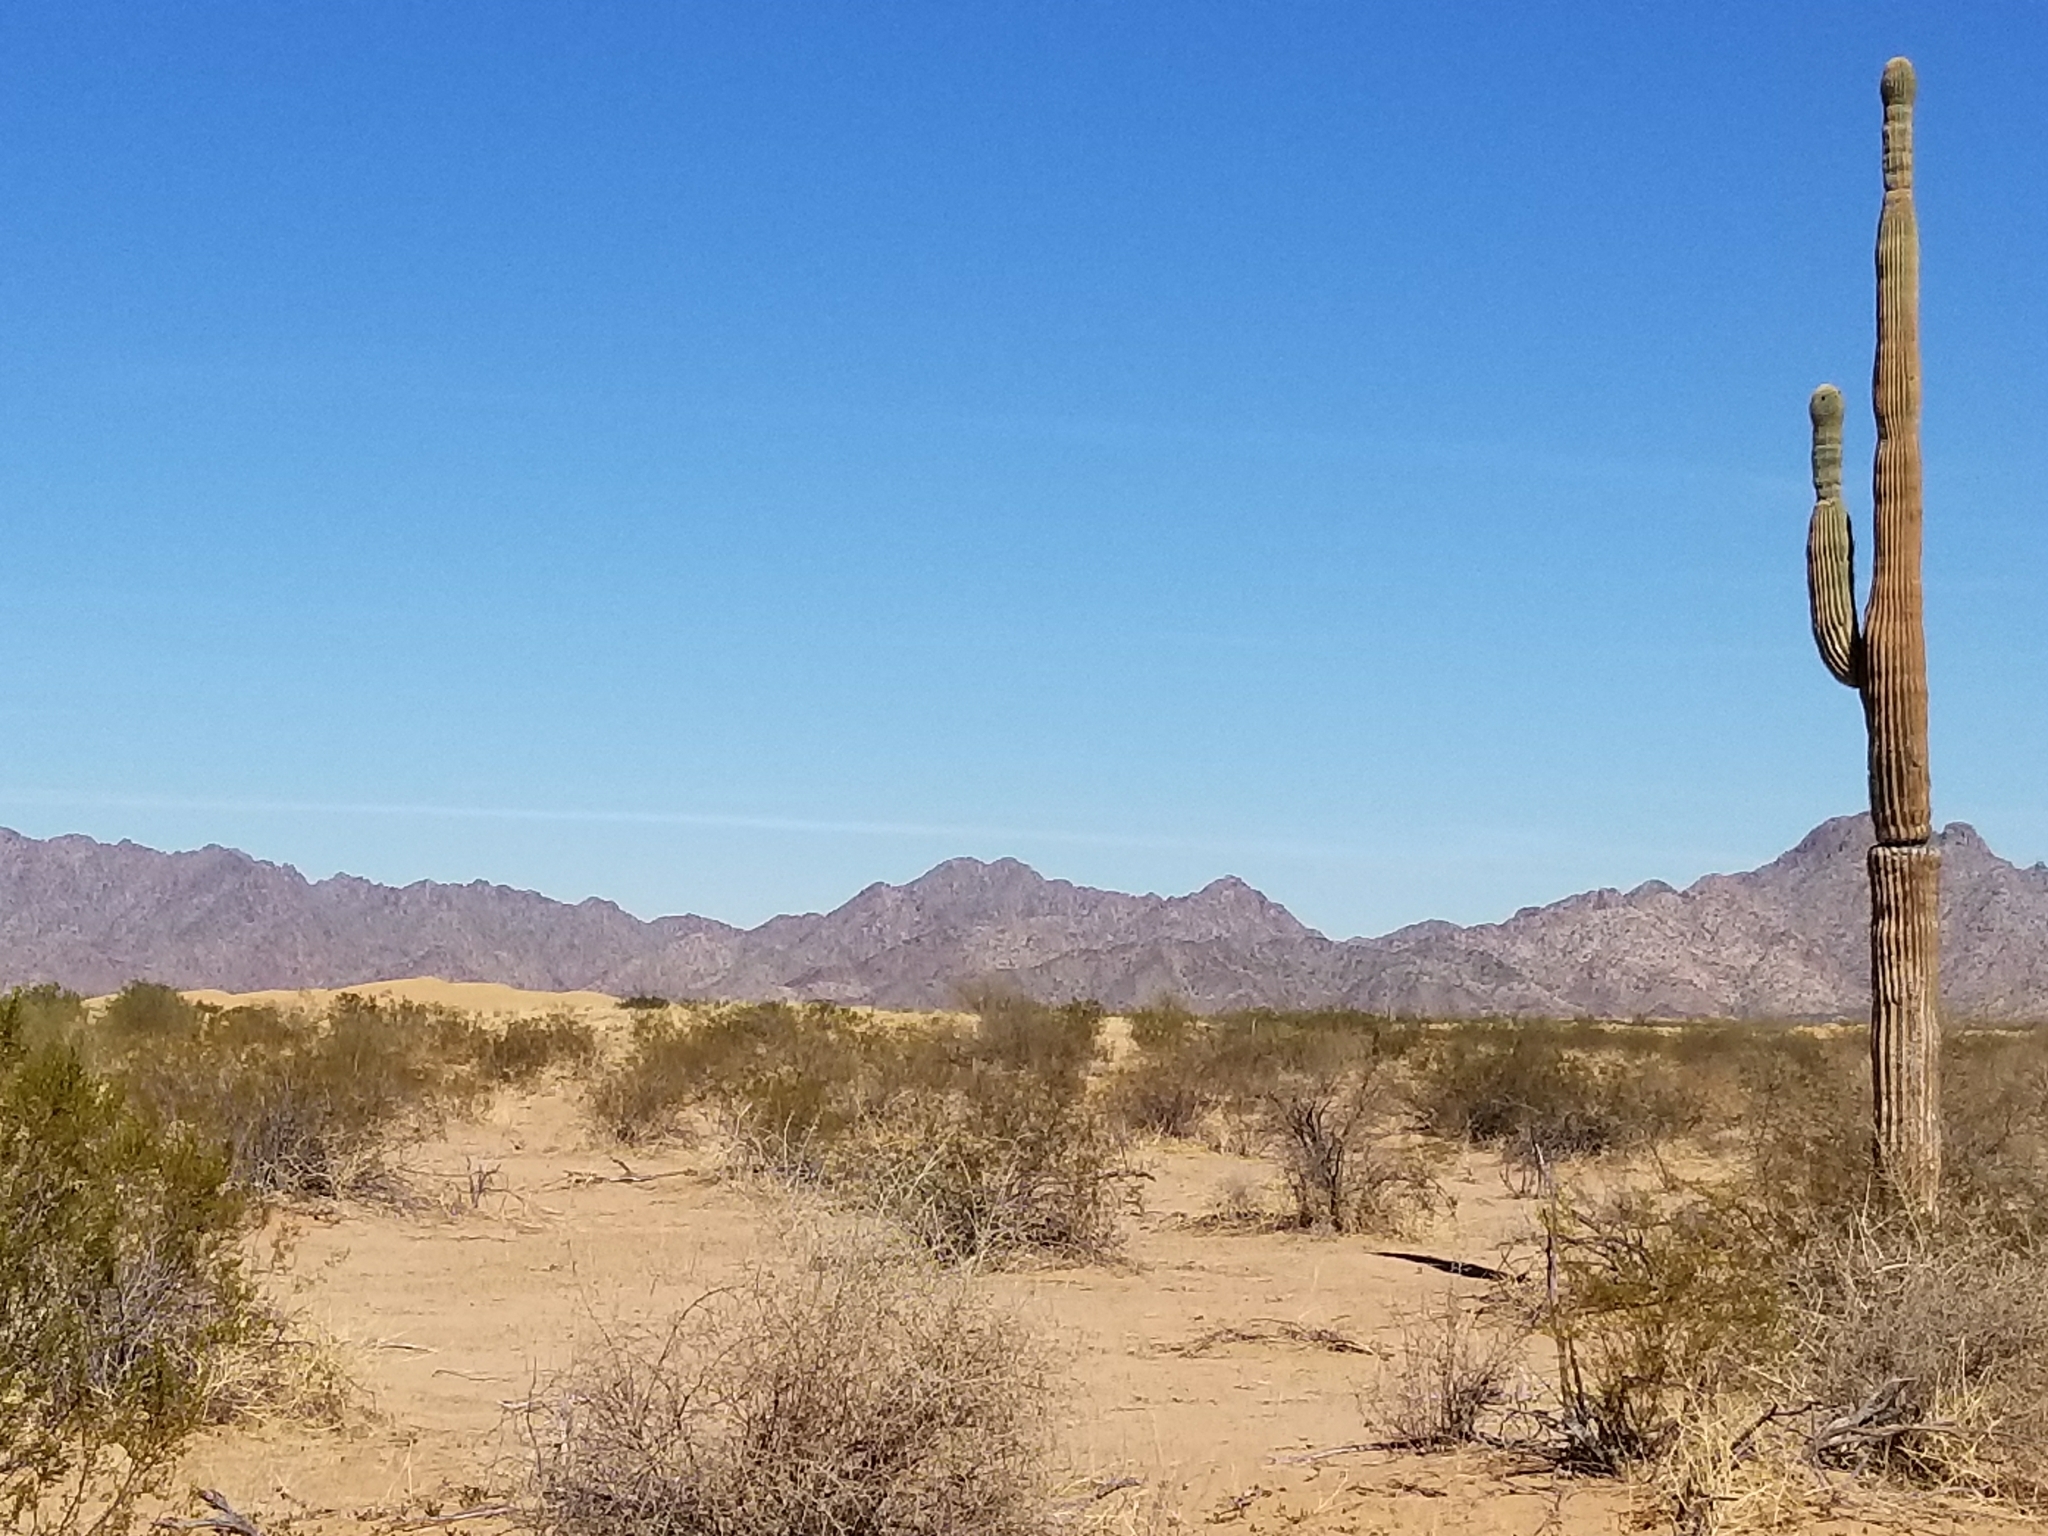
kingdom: Plantae
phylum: Tracheophyta
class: Magnoliopsida
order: Caryophyllales
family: Cactaceae
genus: Carnegiea
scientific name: Carnegiea gigantea
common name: Saguaro
